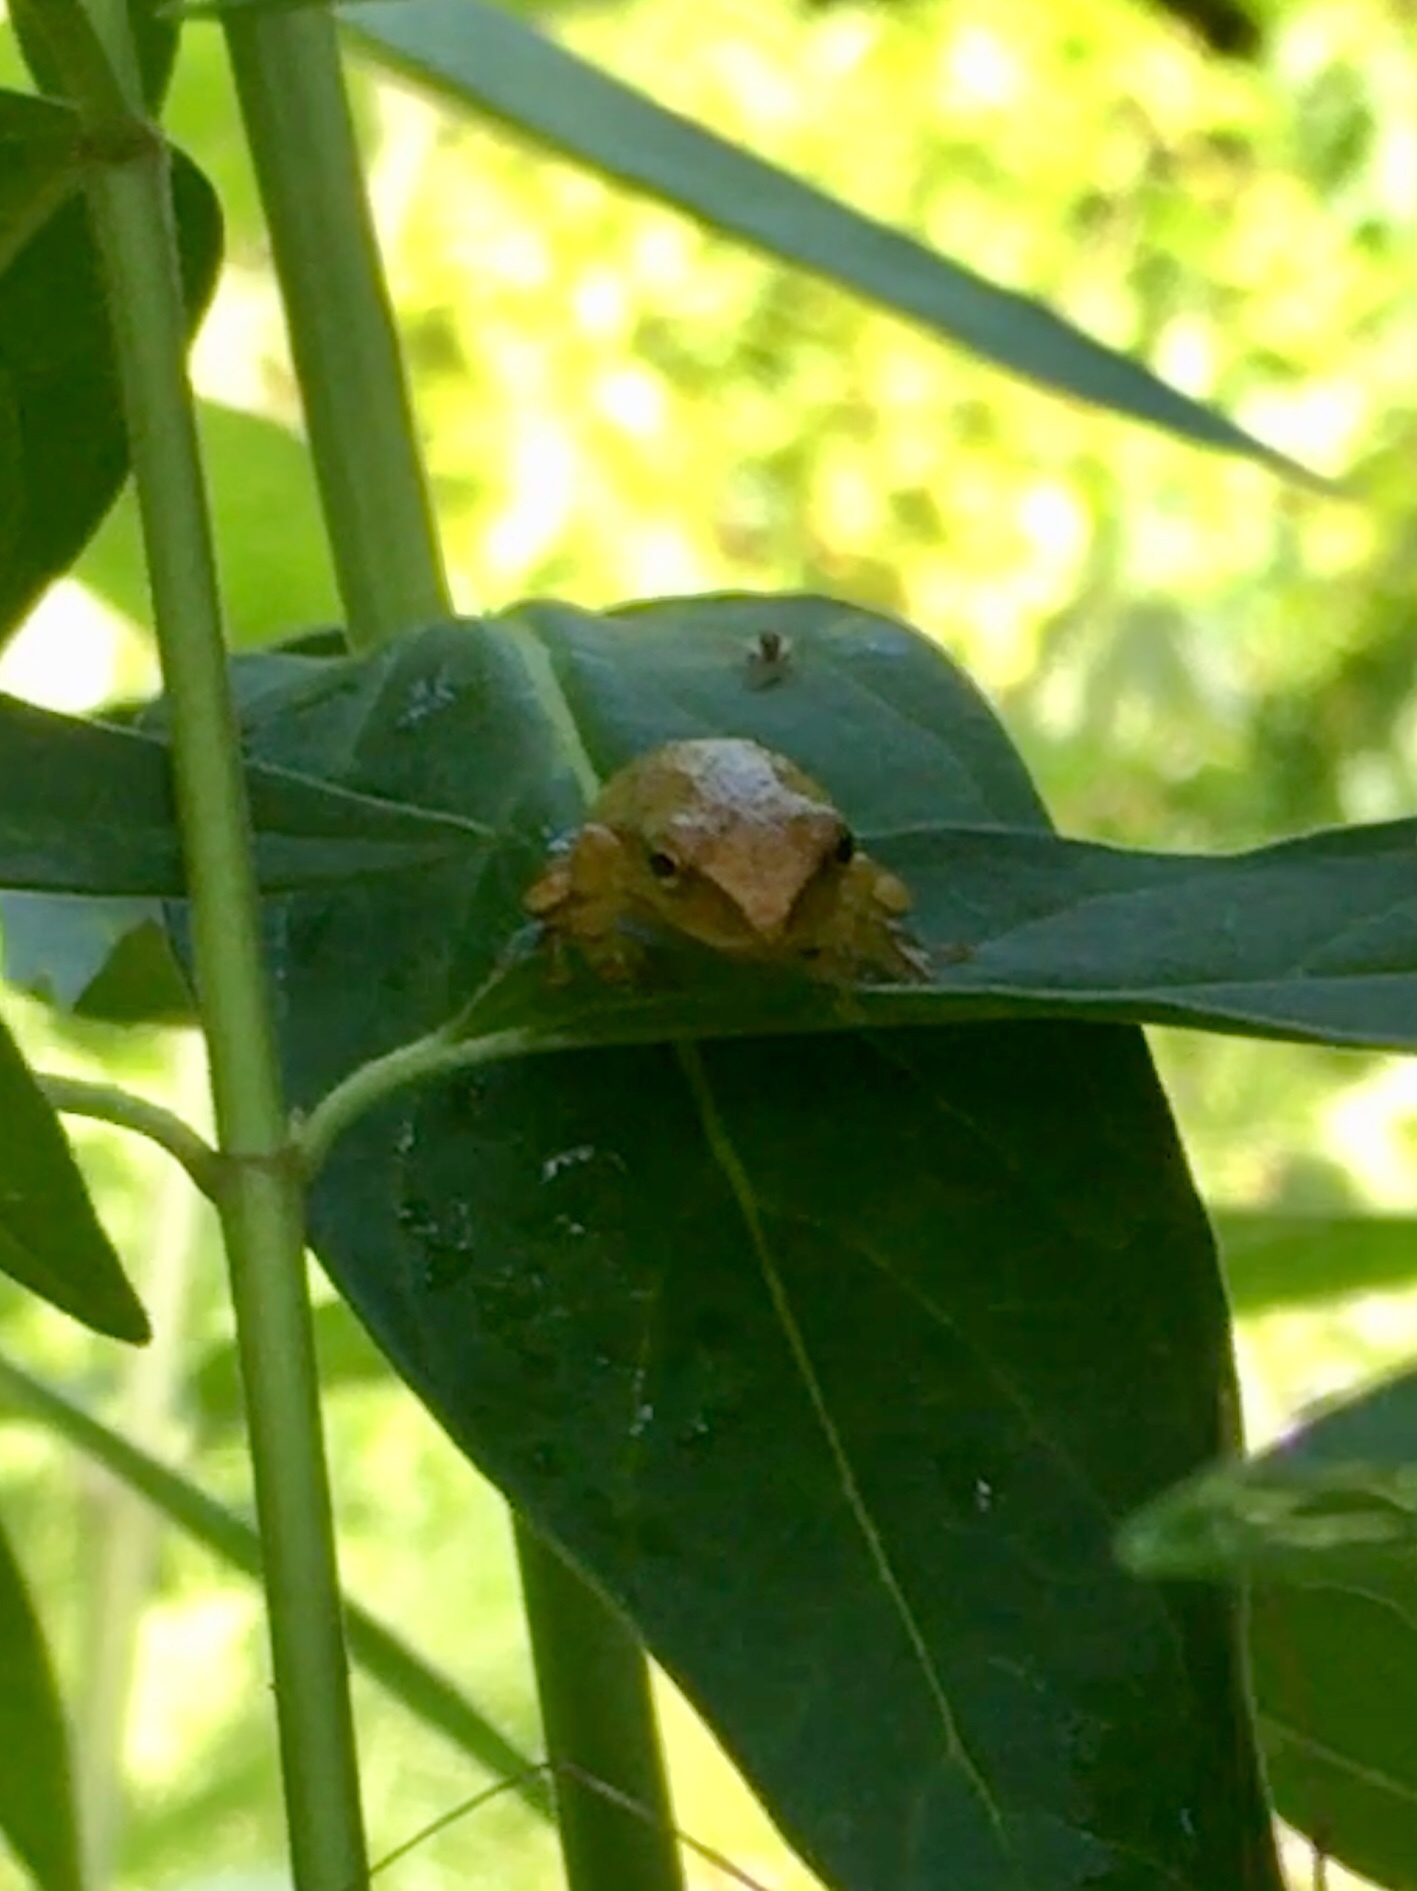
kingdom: Animalia
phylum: Chordata
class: Amphibia
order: Anura
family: Hylidae
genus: Pseudacris
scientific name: Pseudacris crucifer
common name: Spring peeper
